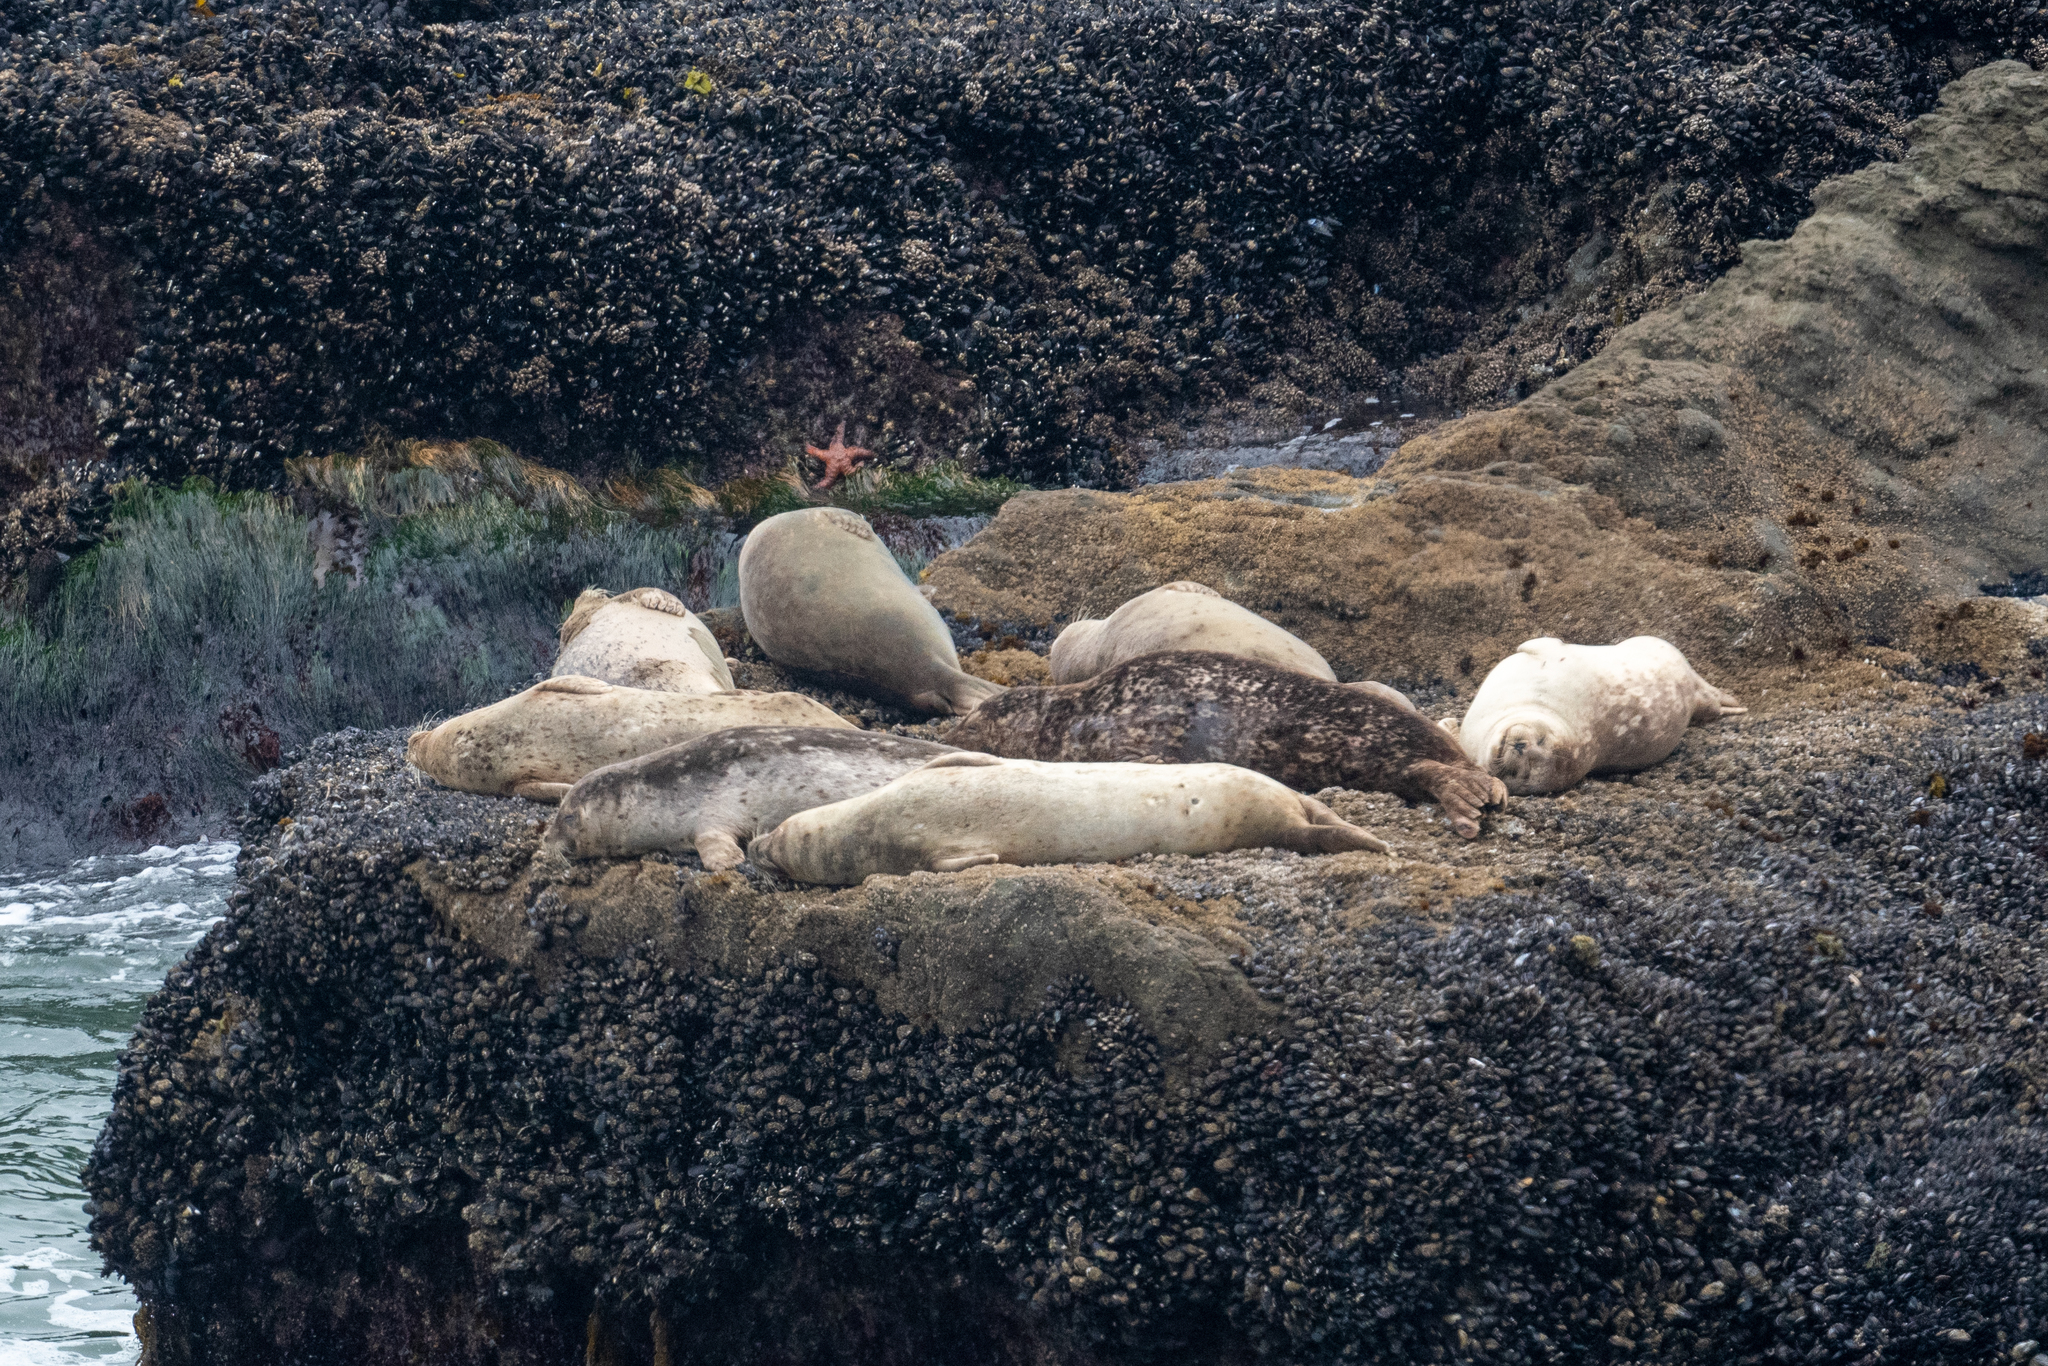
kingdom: Animalia
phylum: Chordata
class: Mammalia
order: Carnivora
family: Phocidae
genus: Phoca
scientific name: Phoca vitulina
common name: Harbor seal
